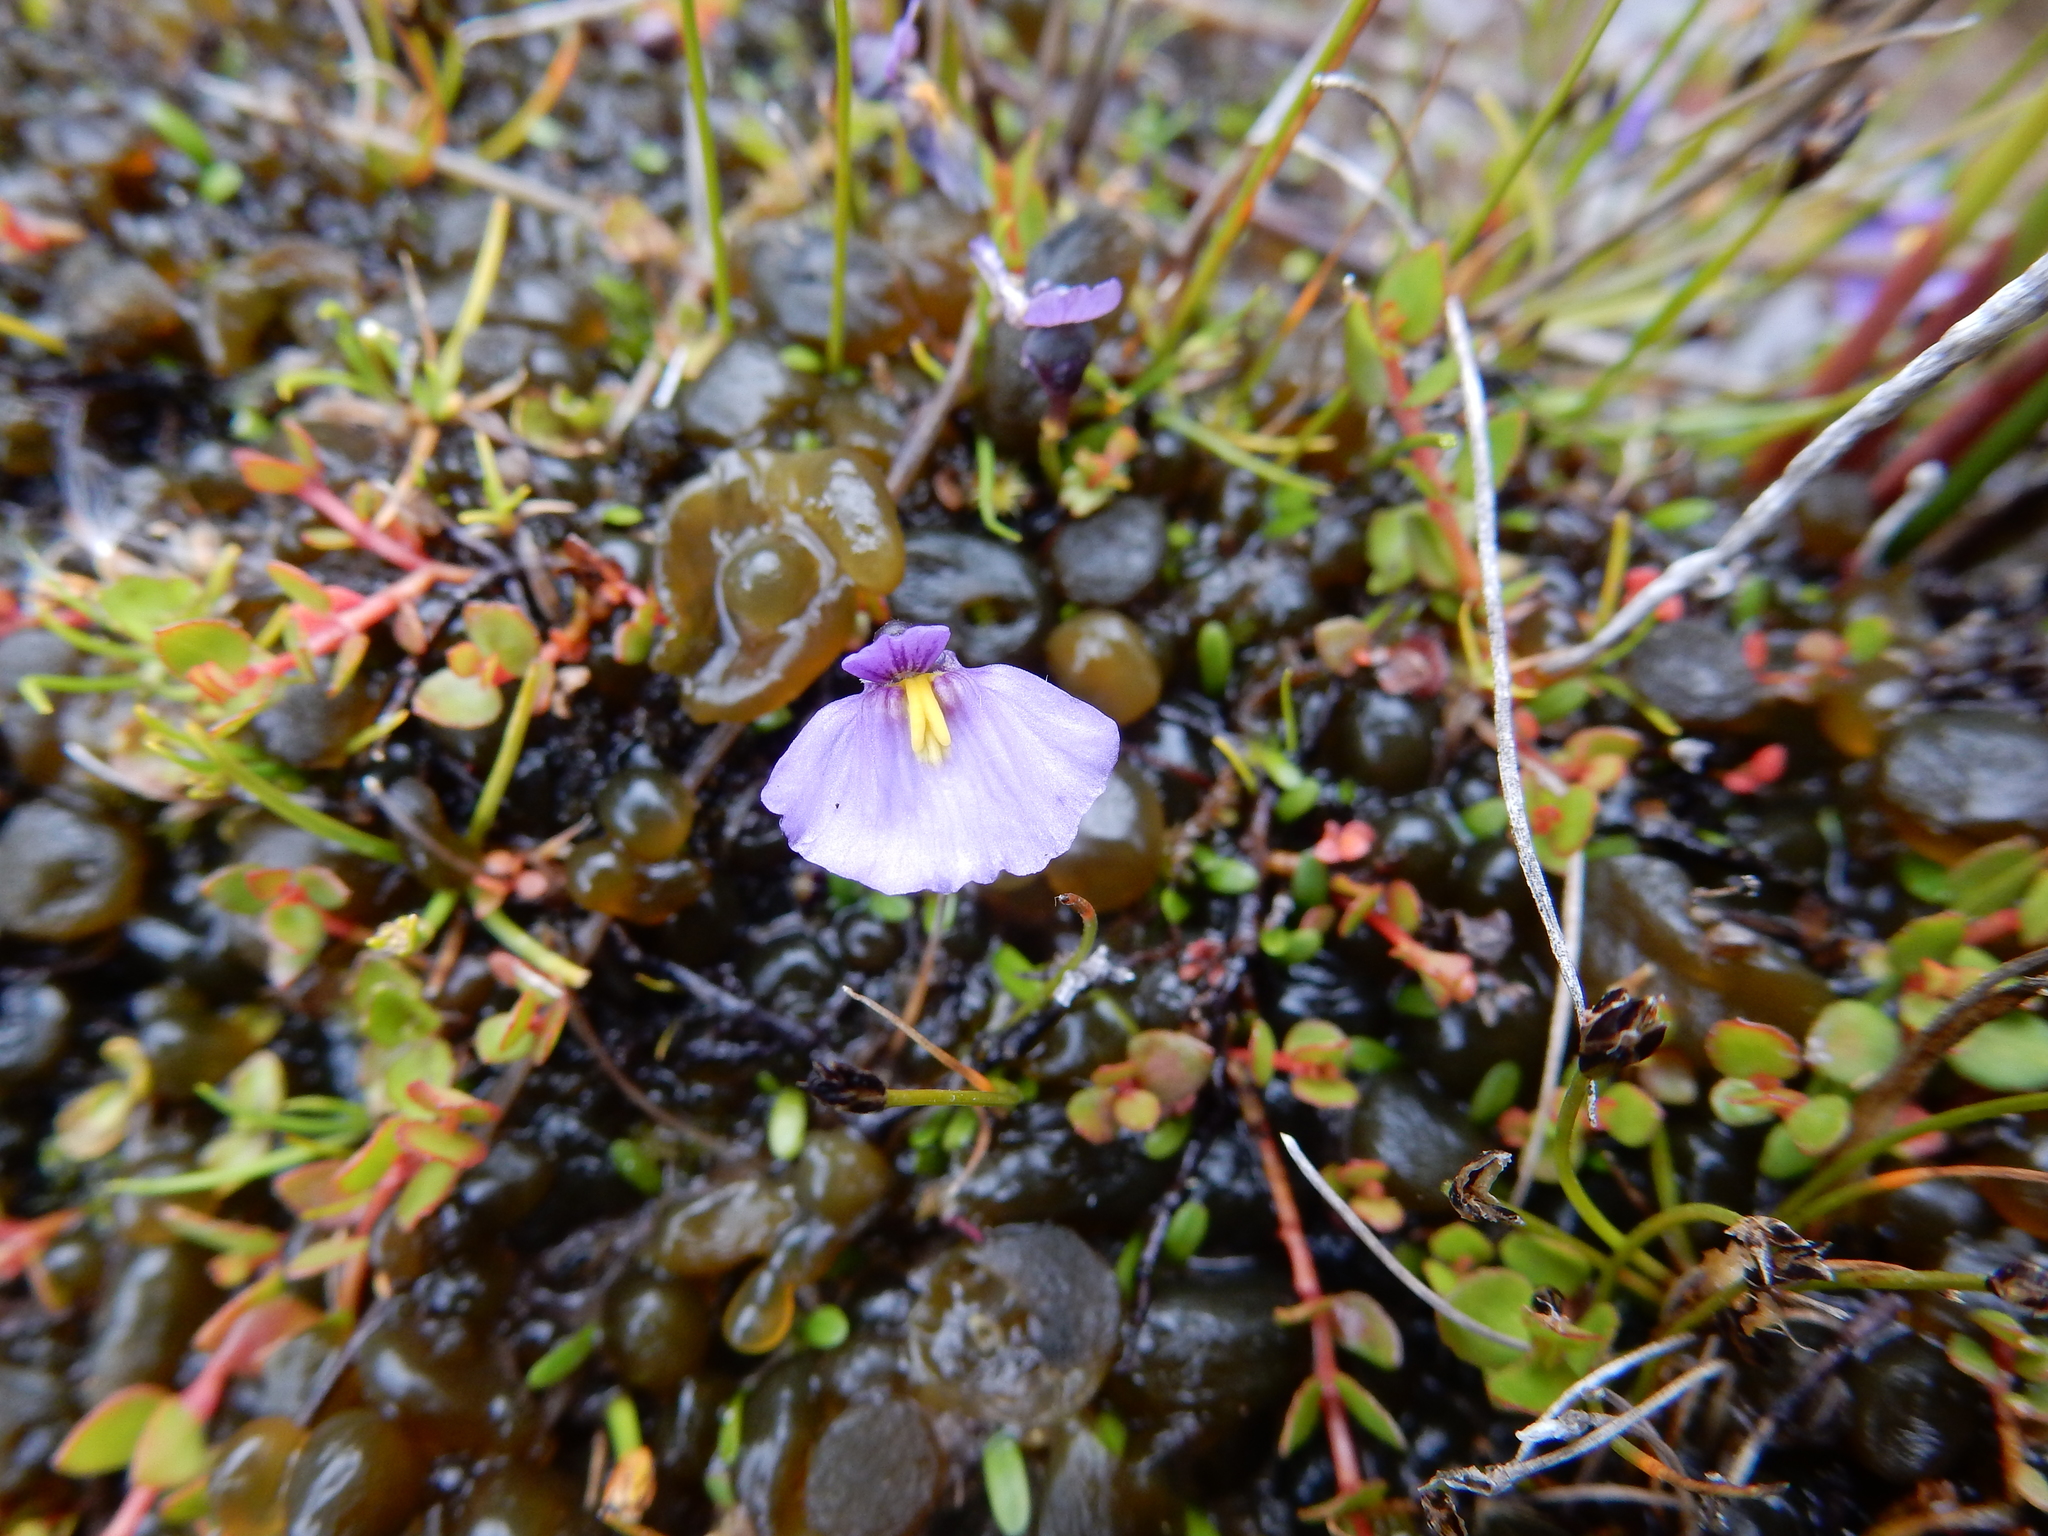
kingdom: Plantae
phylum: Tracheophyta
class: Magnoliopsida
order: Lamiales
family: Lentibulariaceae
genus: Utricularia
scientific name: Utricularia dichotoma
